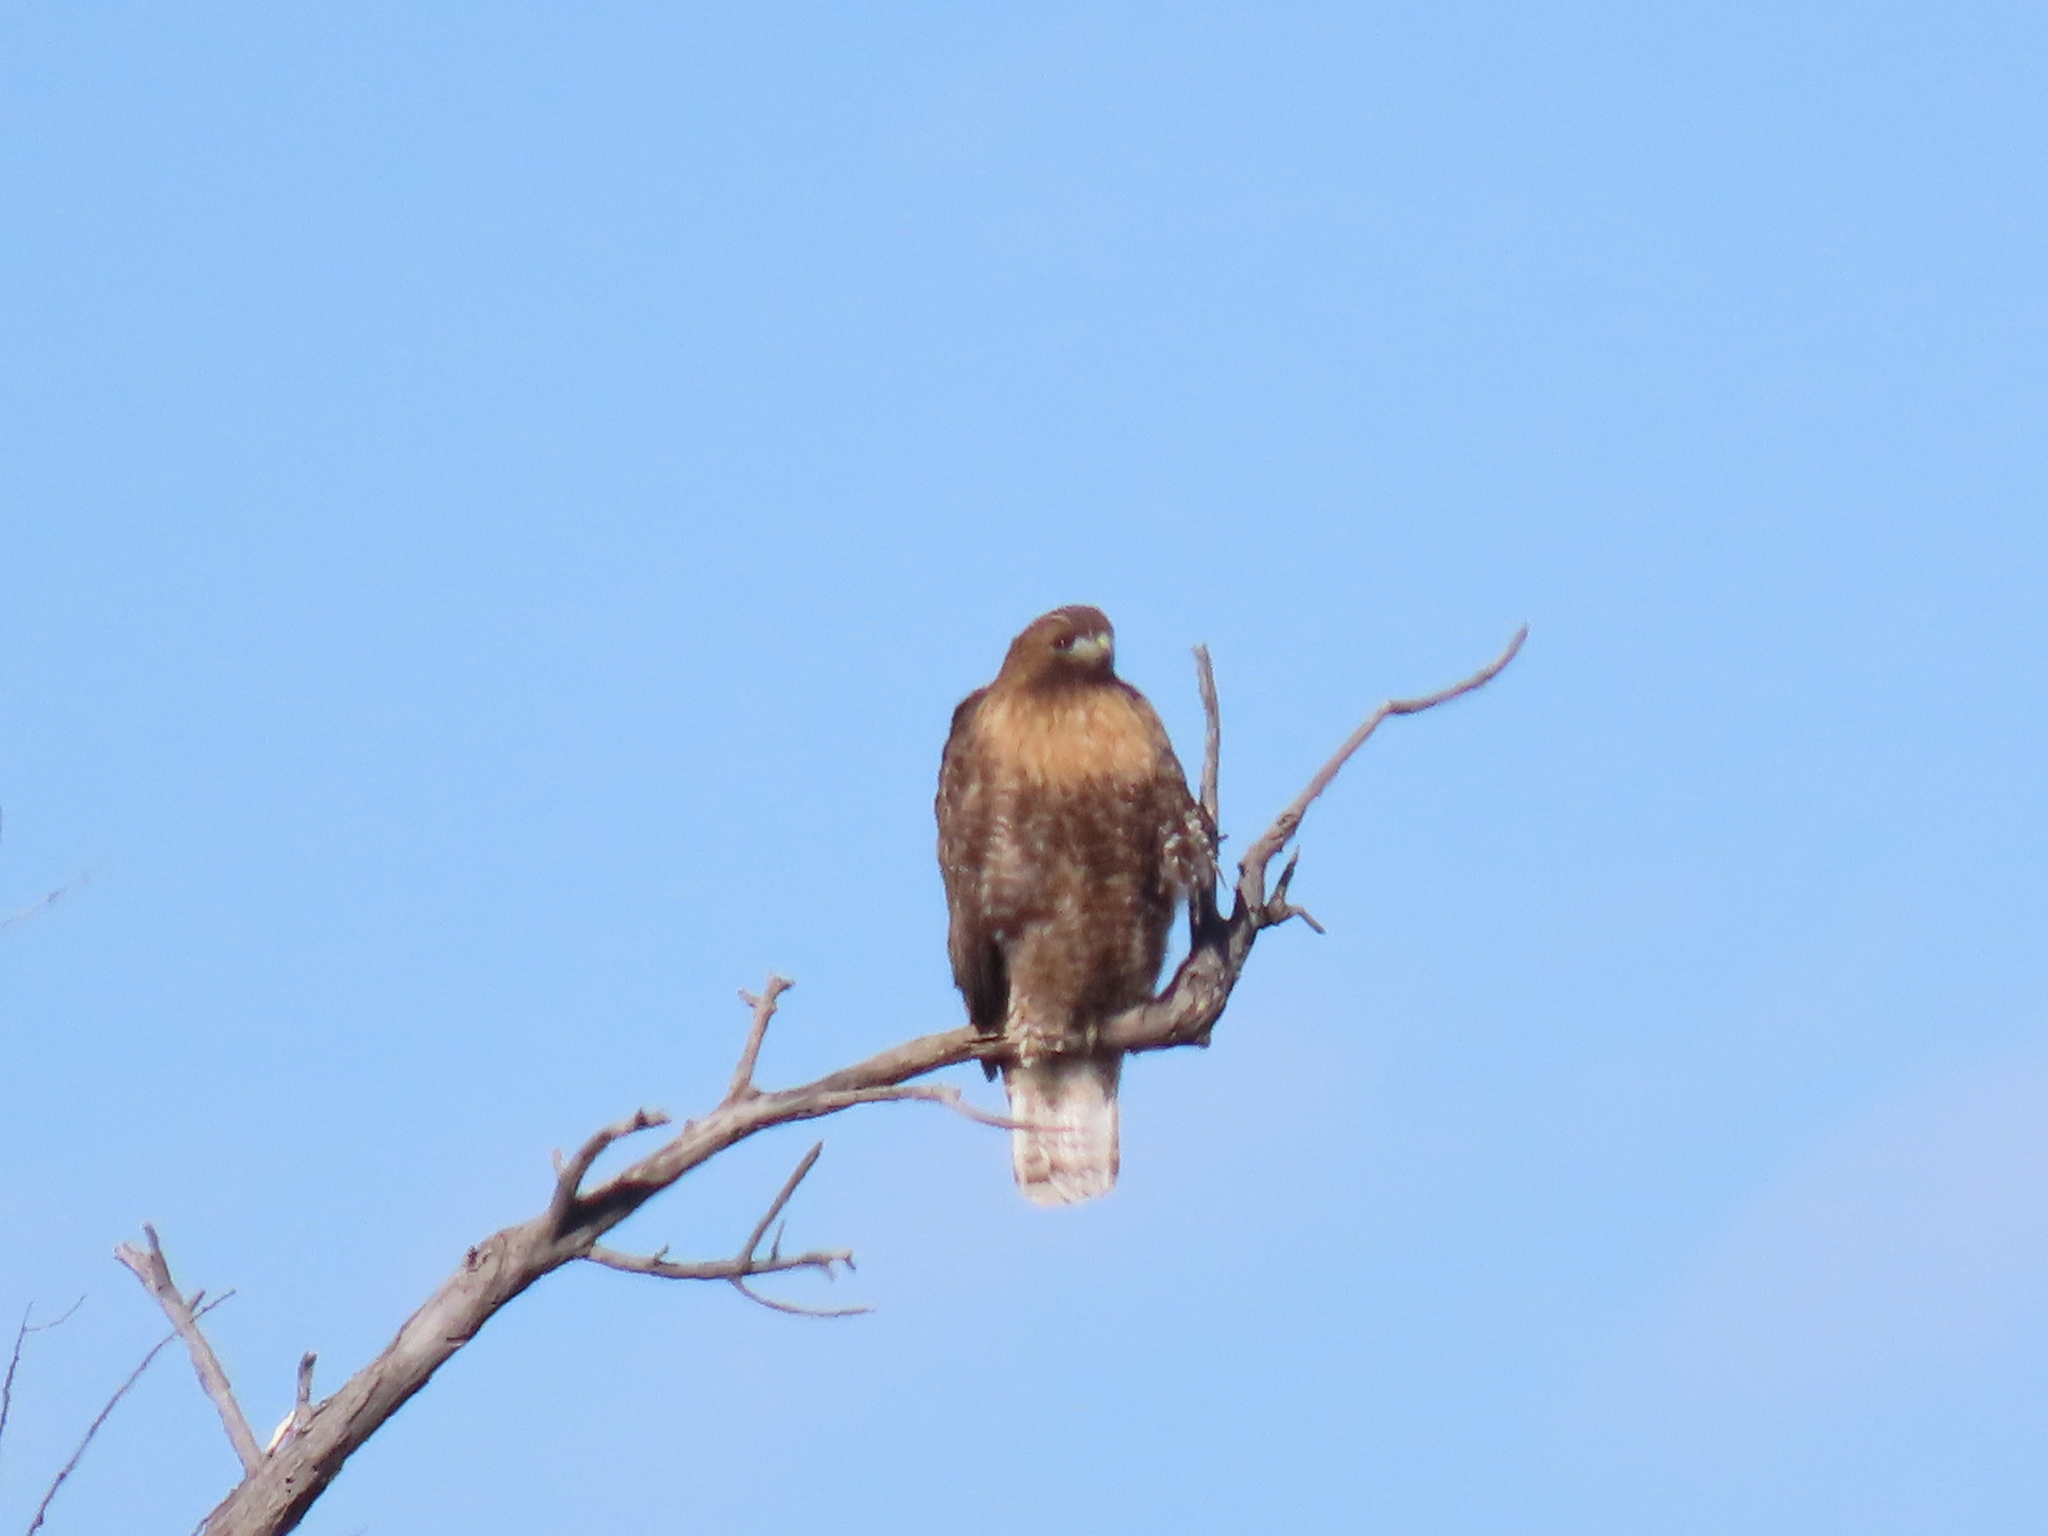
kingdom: Animalia
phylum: Chordata
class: Aves
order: Accipitriformes
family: Accipitridae
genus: Buteo
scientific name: Buteo jamaicensis
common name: Red-tailed hawk
